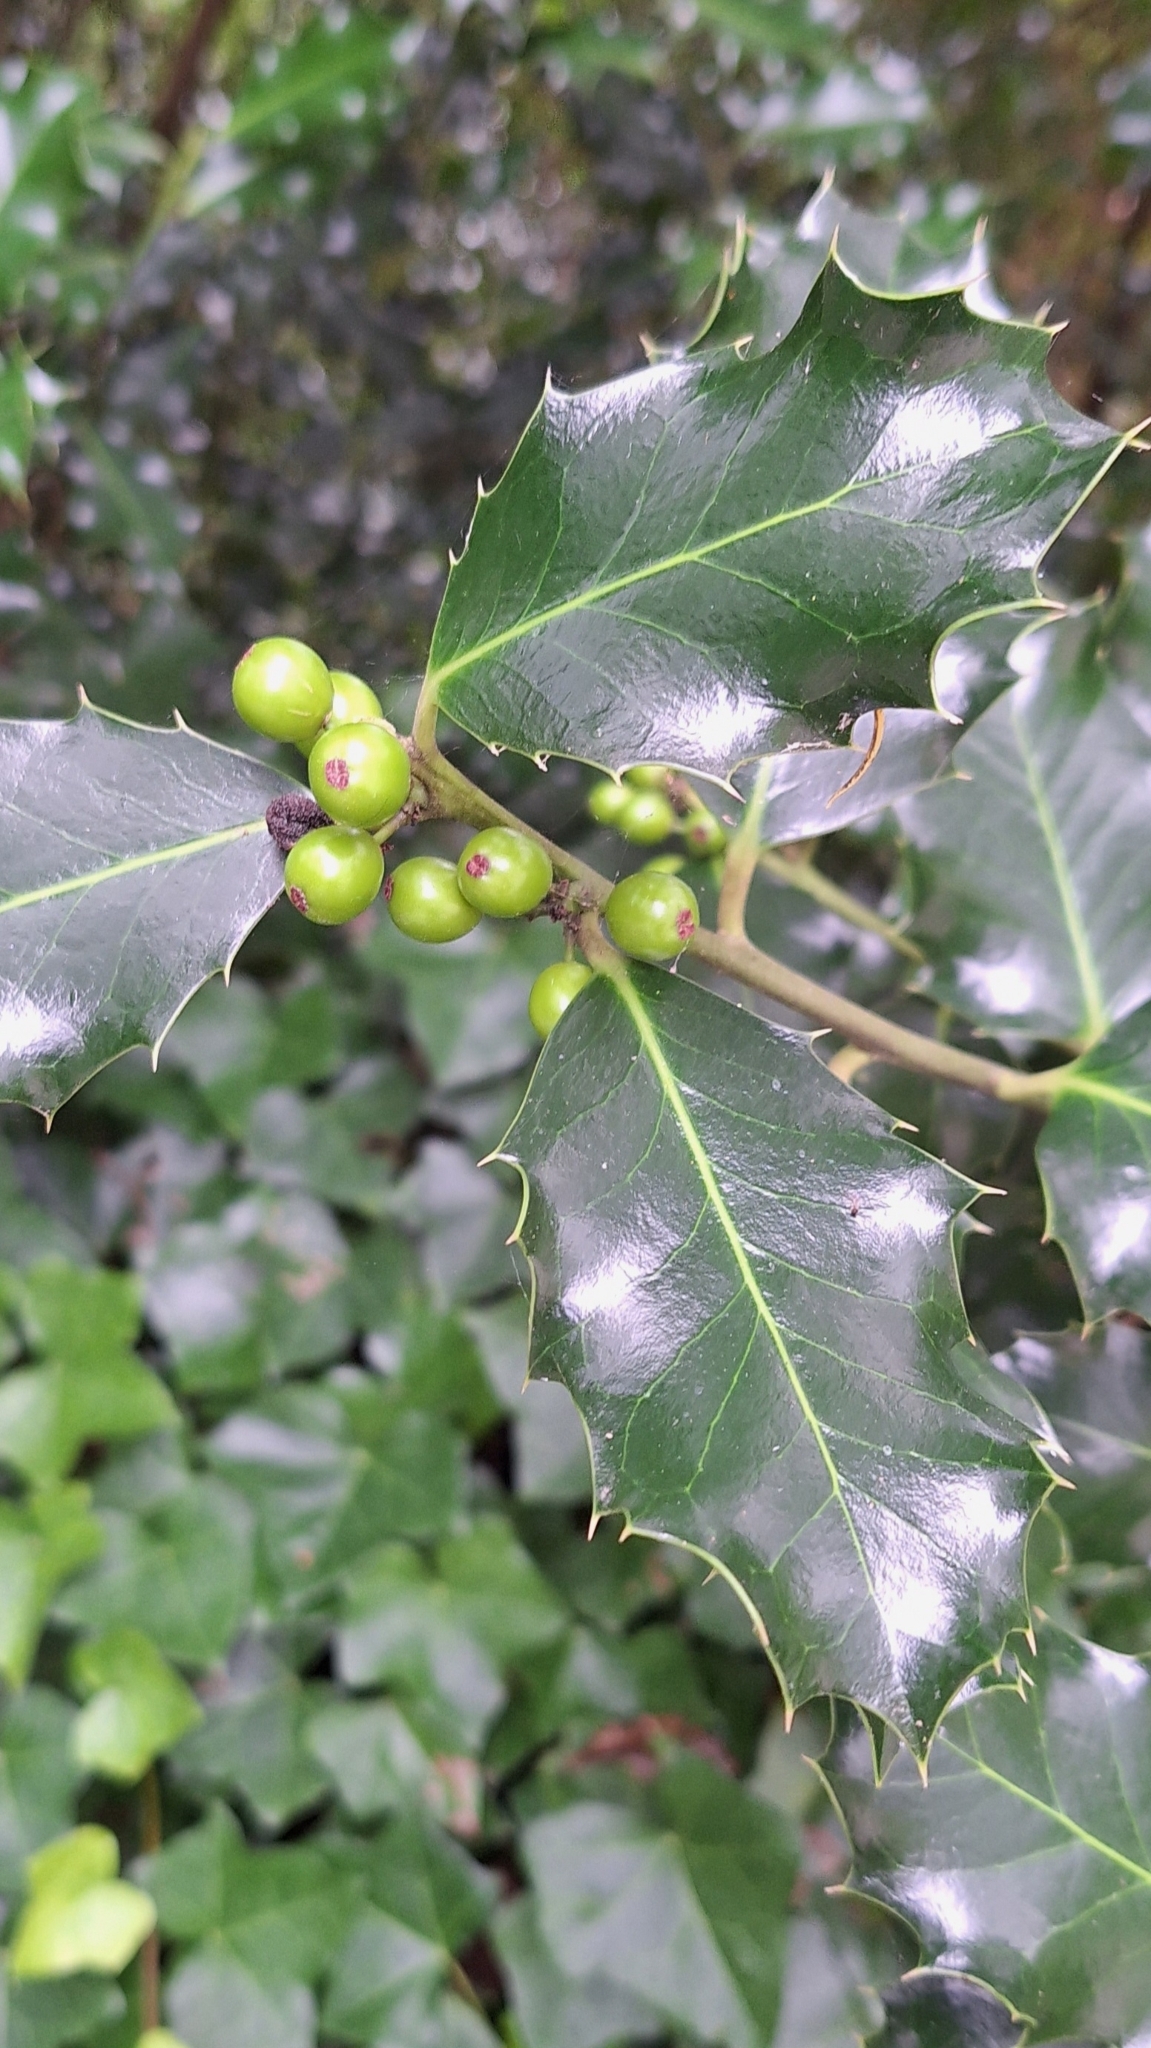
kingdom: Plantae
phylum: Tracheophyta
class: Magnoliopsida
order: Aquifoliales
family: Aquifoliaceae
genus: Ilex
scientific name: Ilex aquifolium
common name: English holly
